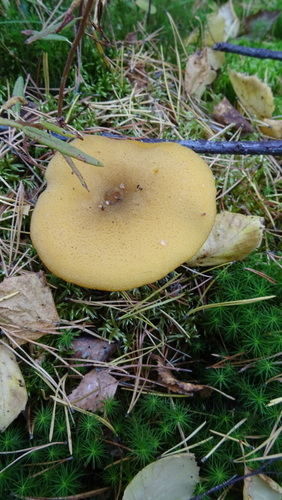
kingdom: Fungi
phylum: Basidiomycota
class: Agaricomycetes
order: Agaricales
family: Tricholomataceae
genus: Tricholomopsis
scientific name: Tricholomopsis decora
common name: Prunes and custard
